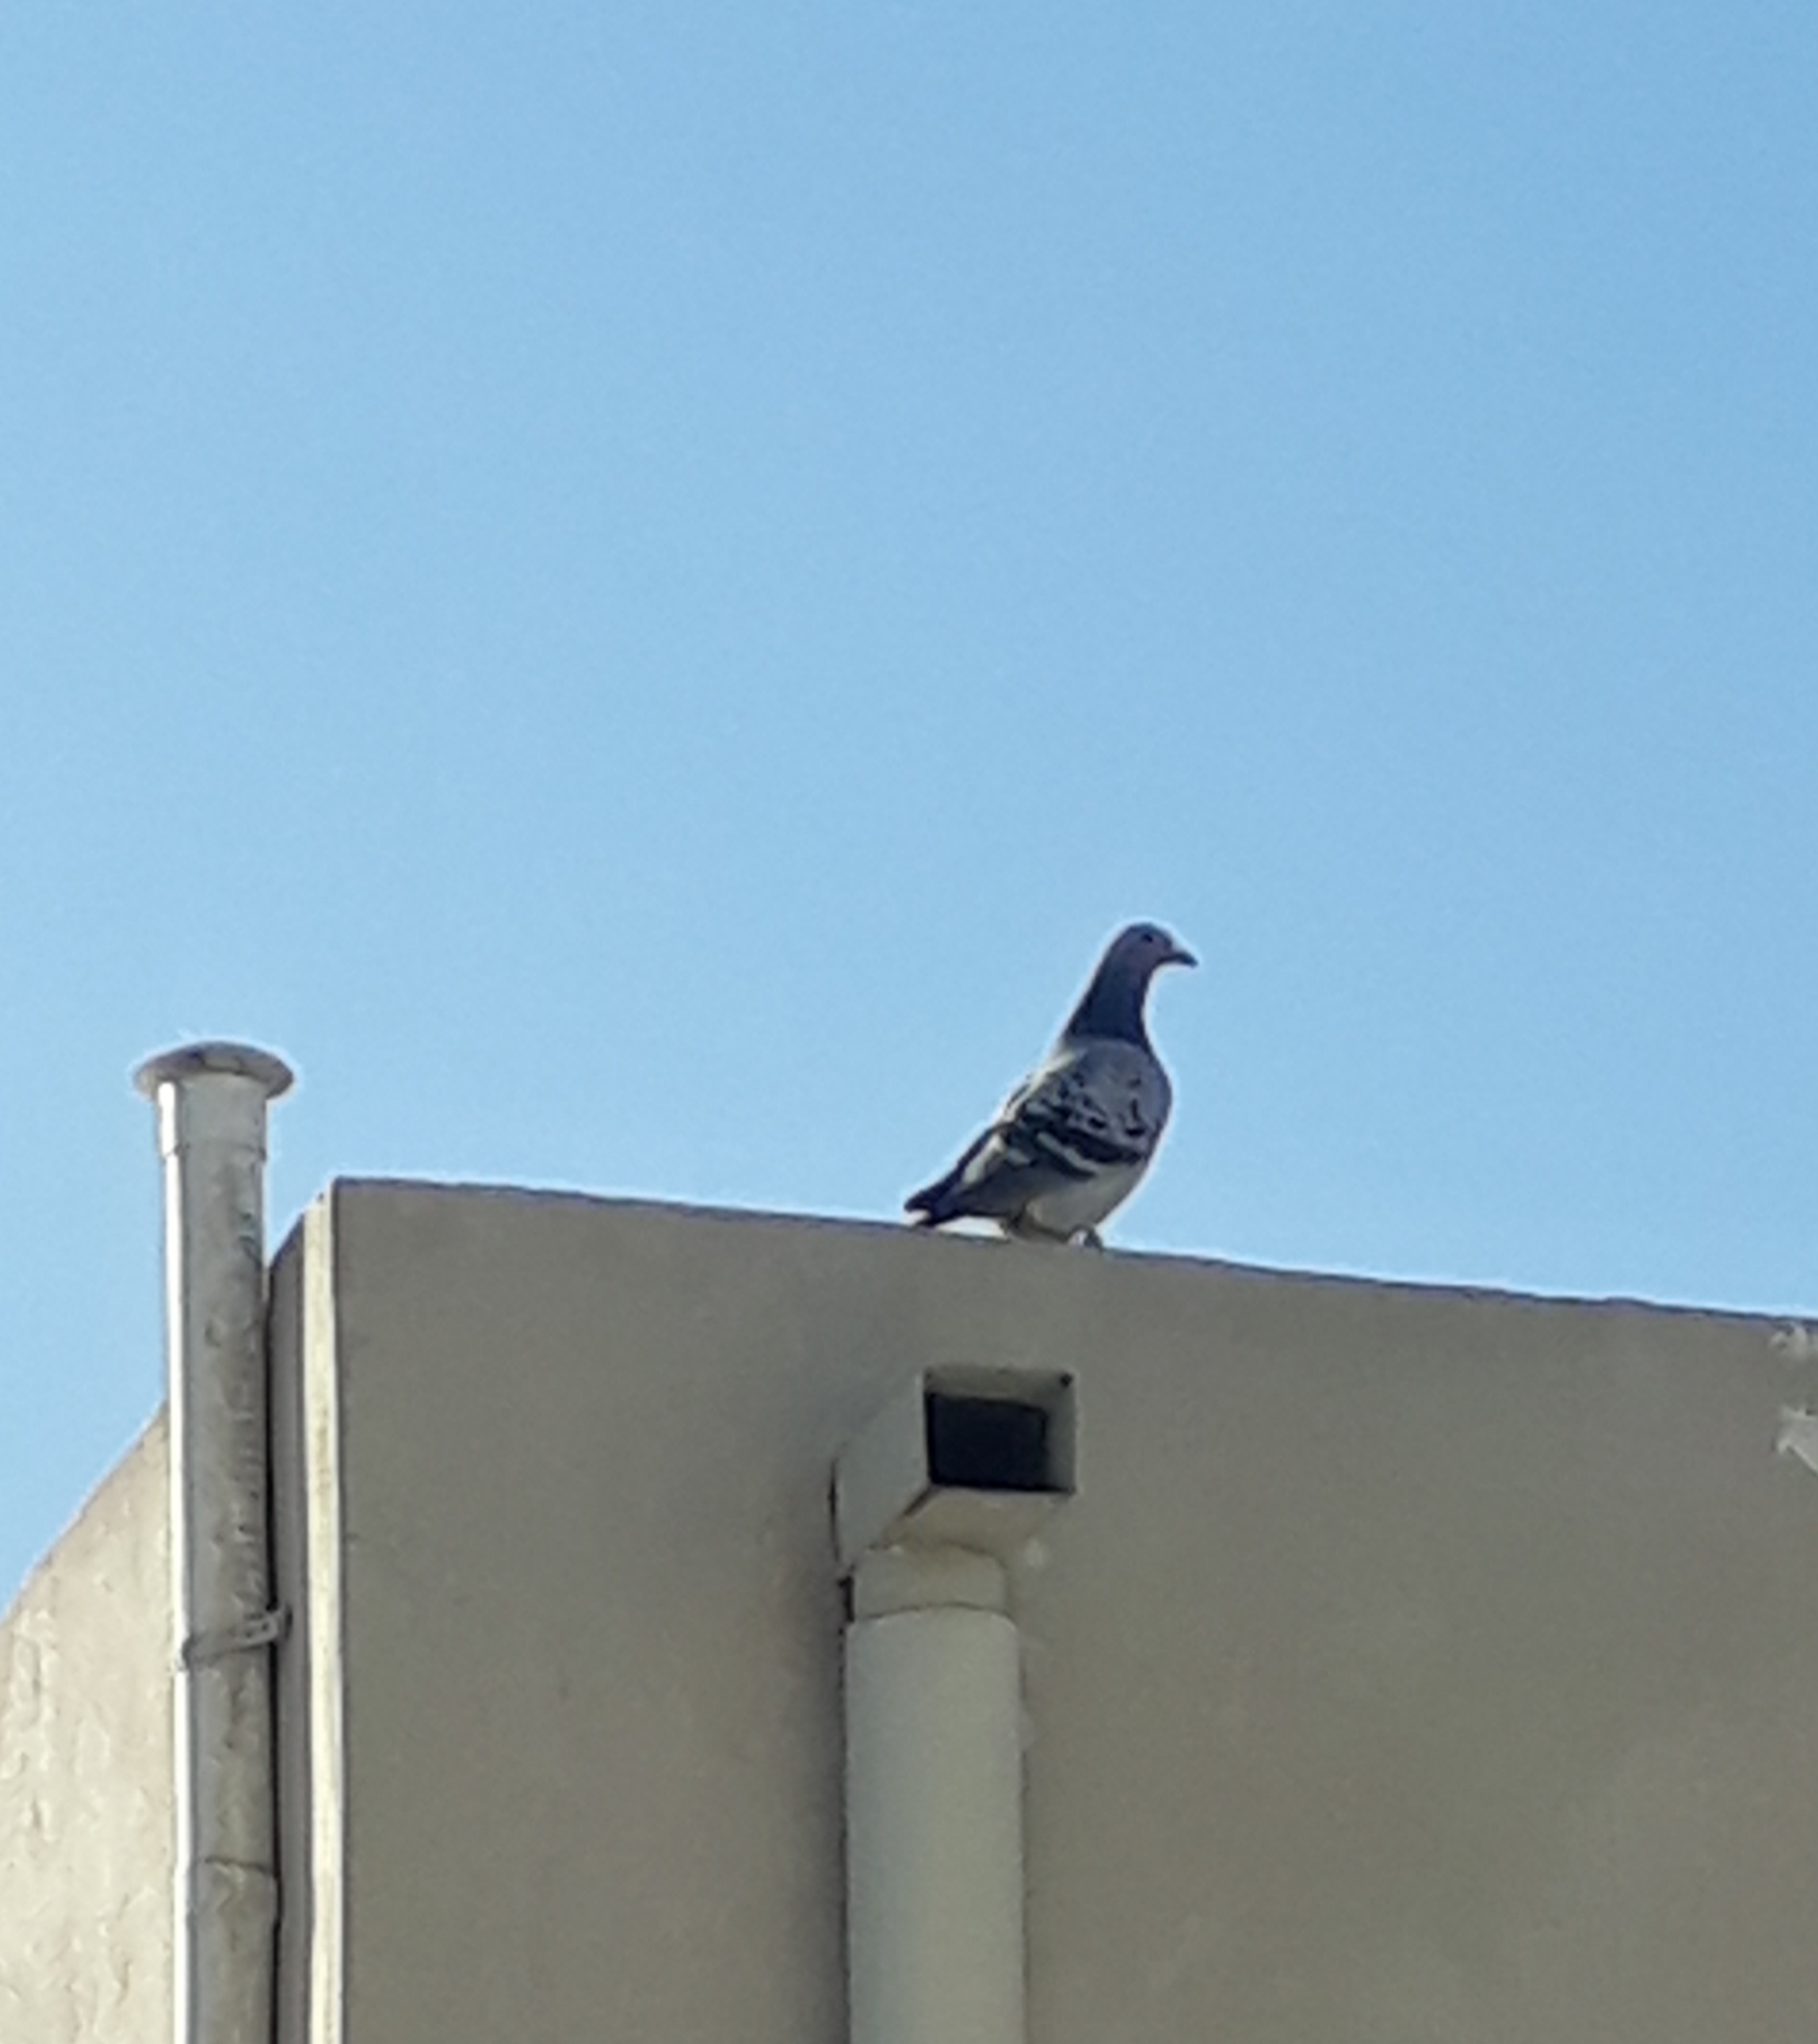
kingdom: Animalia
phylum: Chordata
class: Aves
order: Columbiformes
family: Columbidae
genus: Columba
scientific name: Columba livia
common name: Rock pigeon
